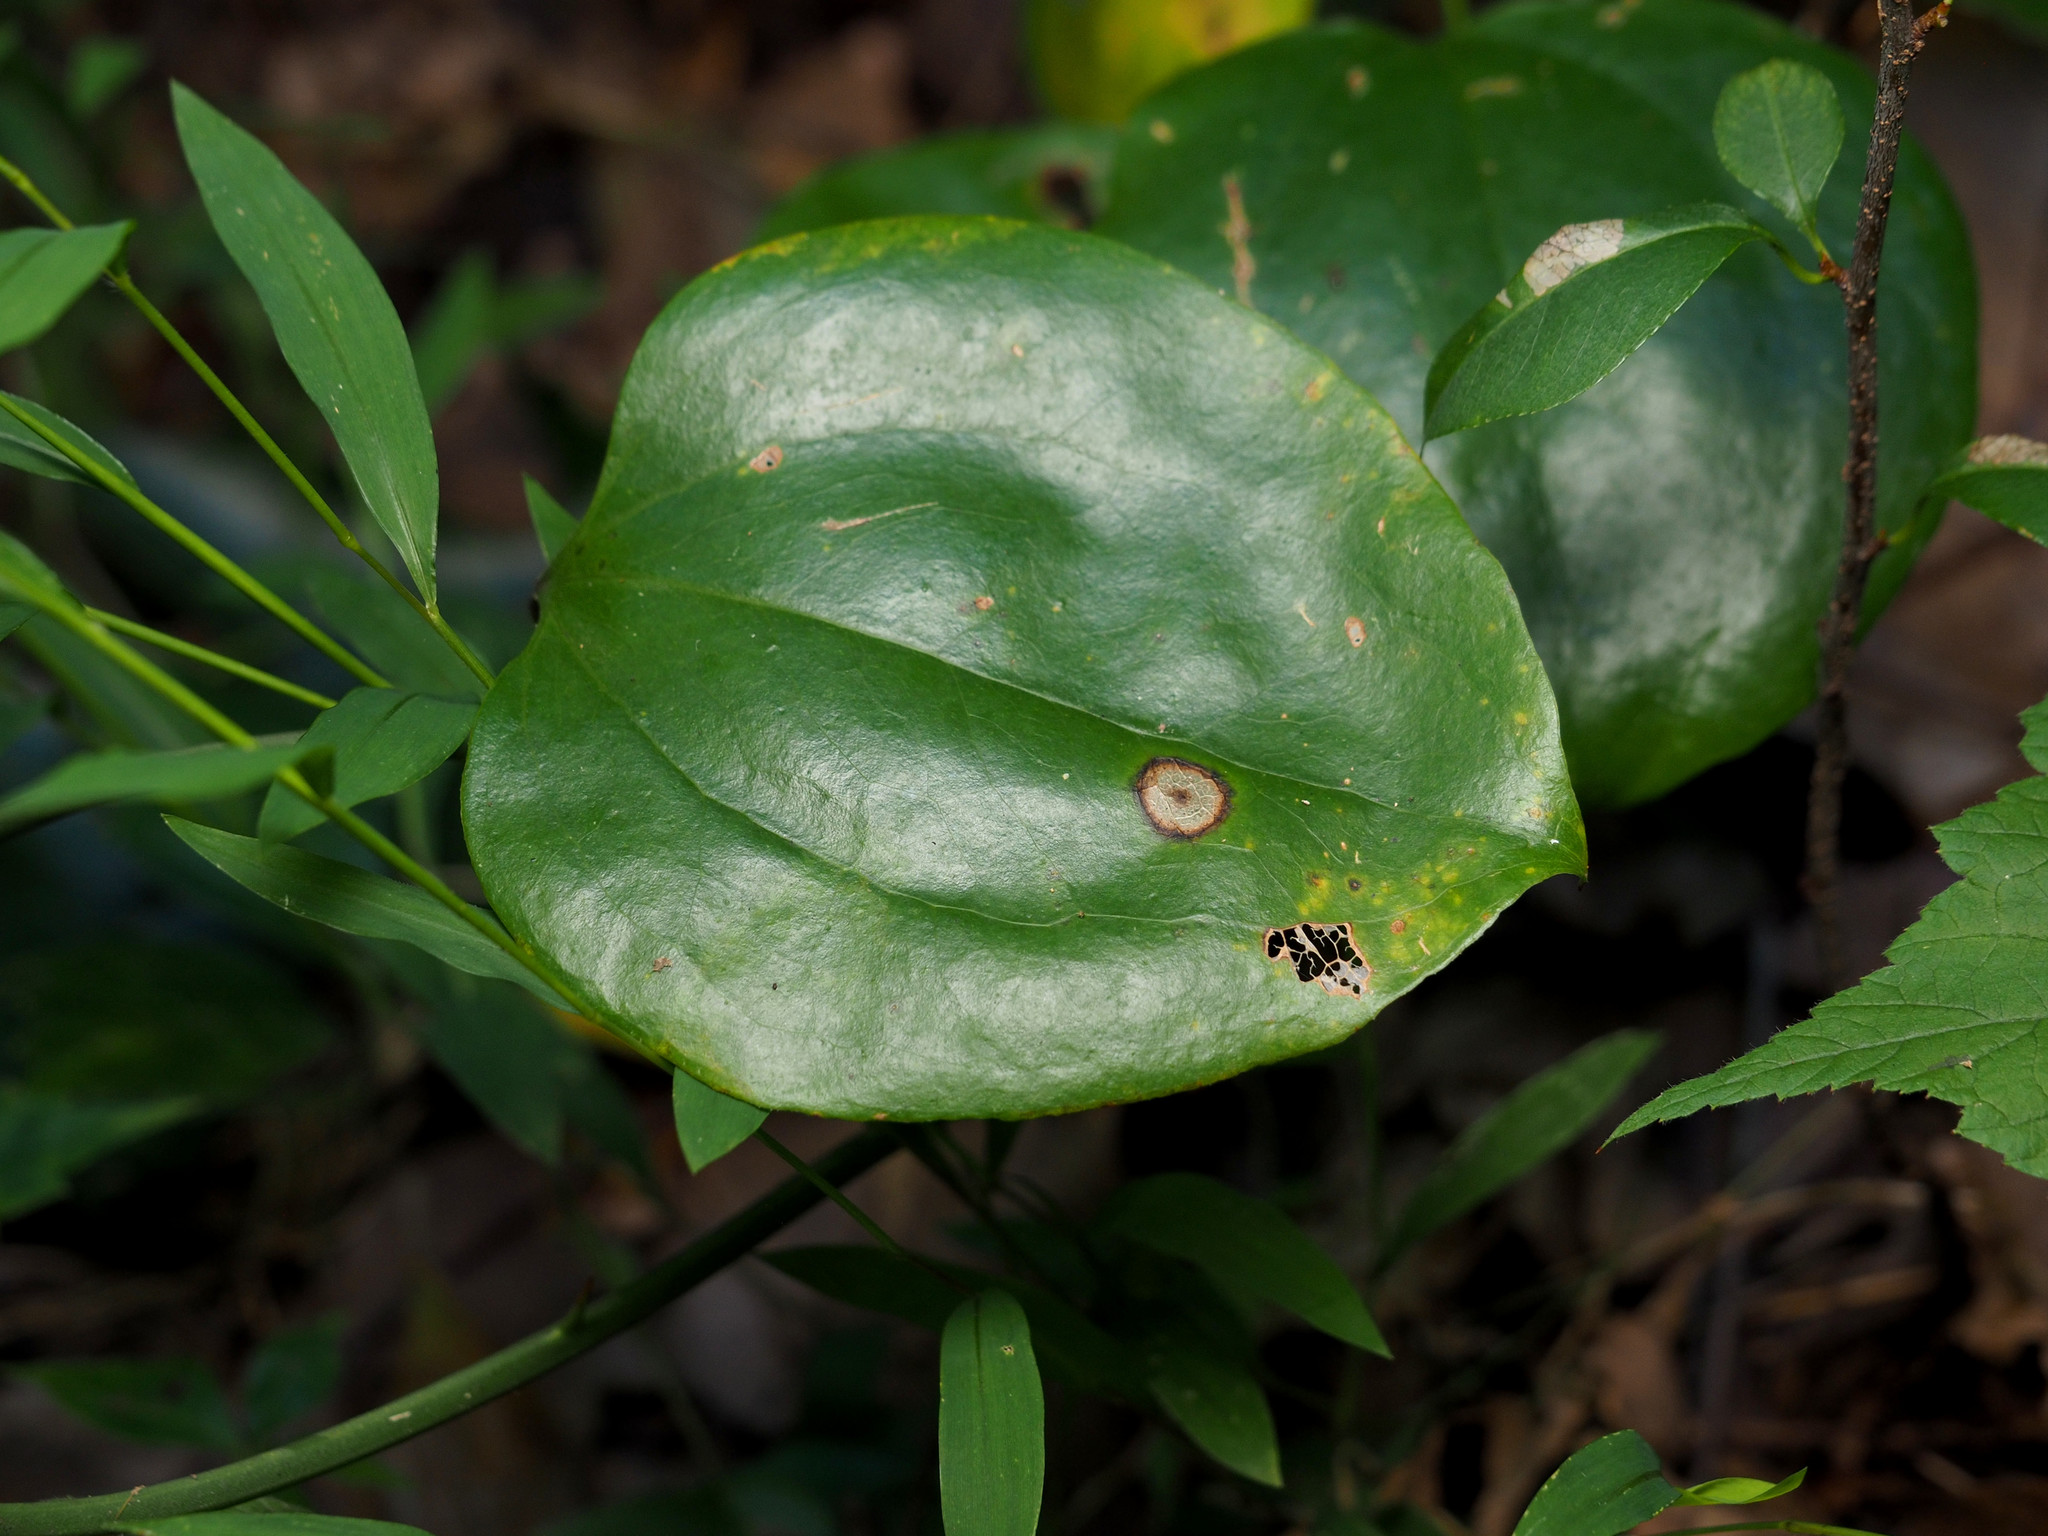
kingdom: Plantae
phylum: Tracheophyta
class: Liliopsida
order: Liliales
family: Smilacaceae
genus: Smilax
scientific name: Smilax rotundifolia
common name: Bullbriar
